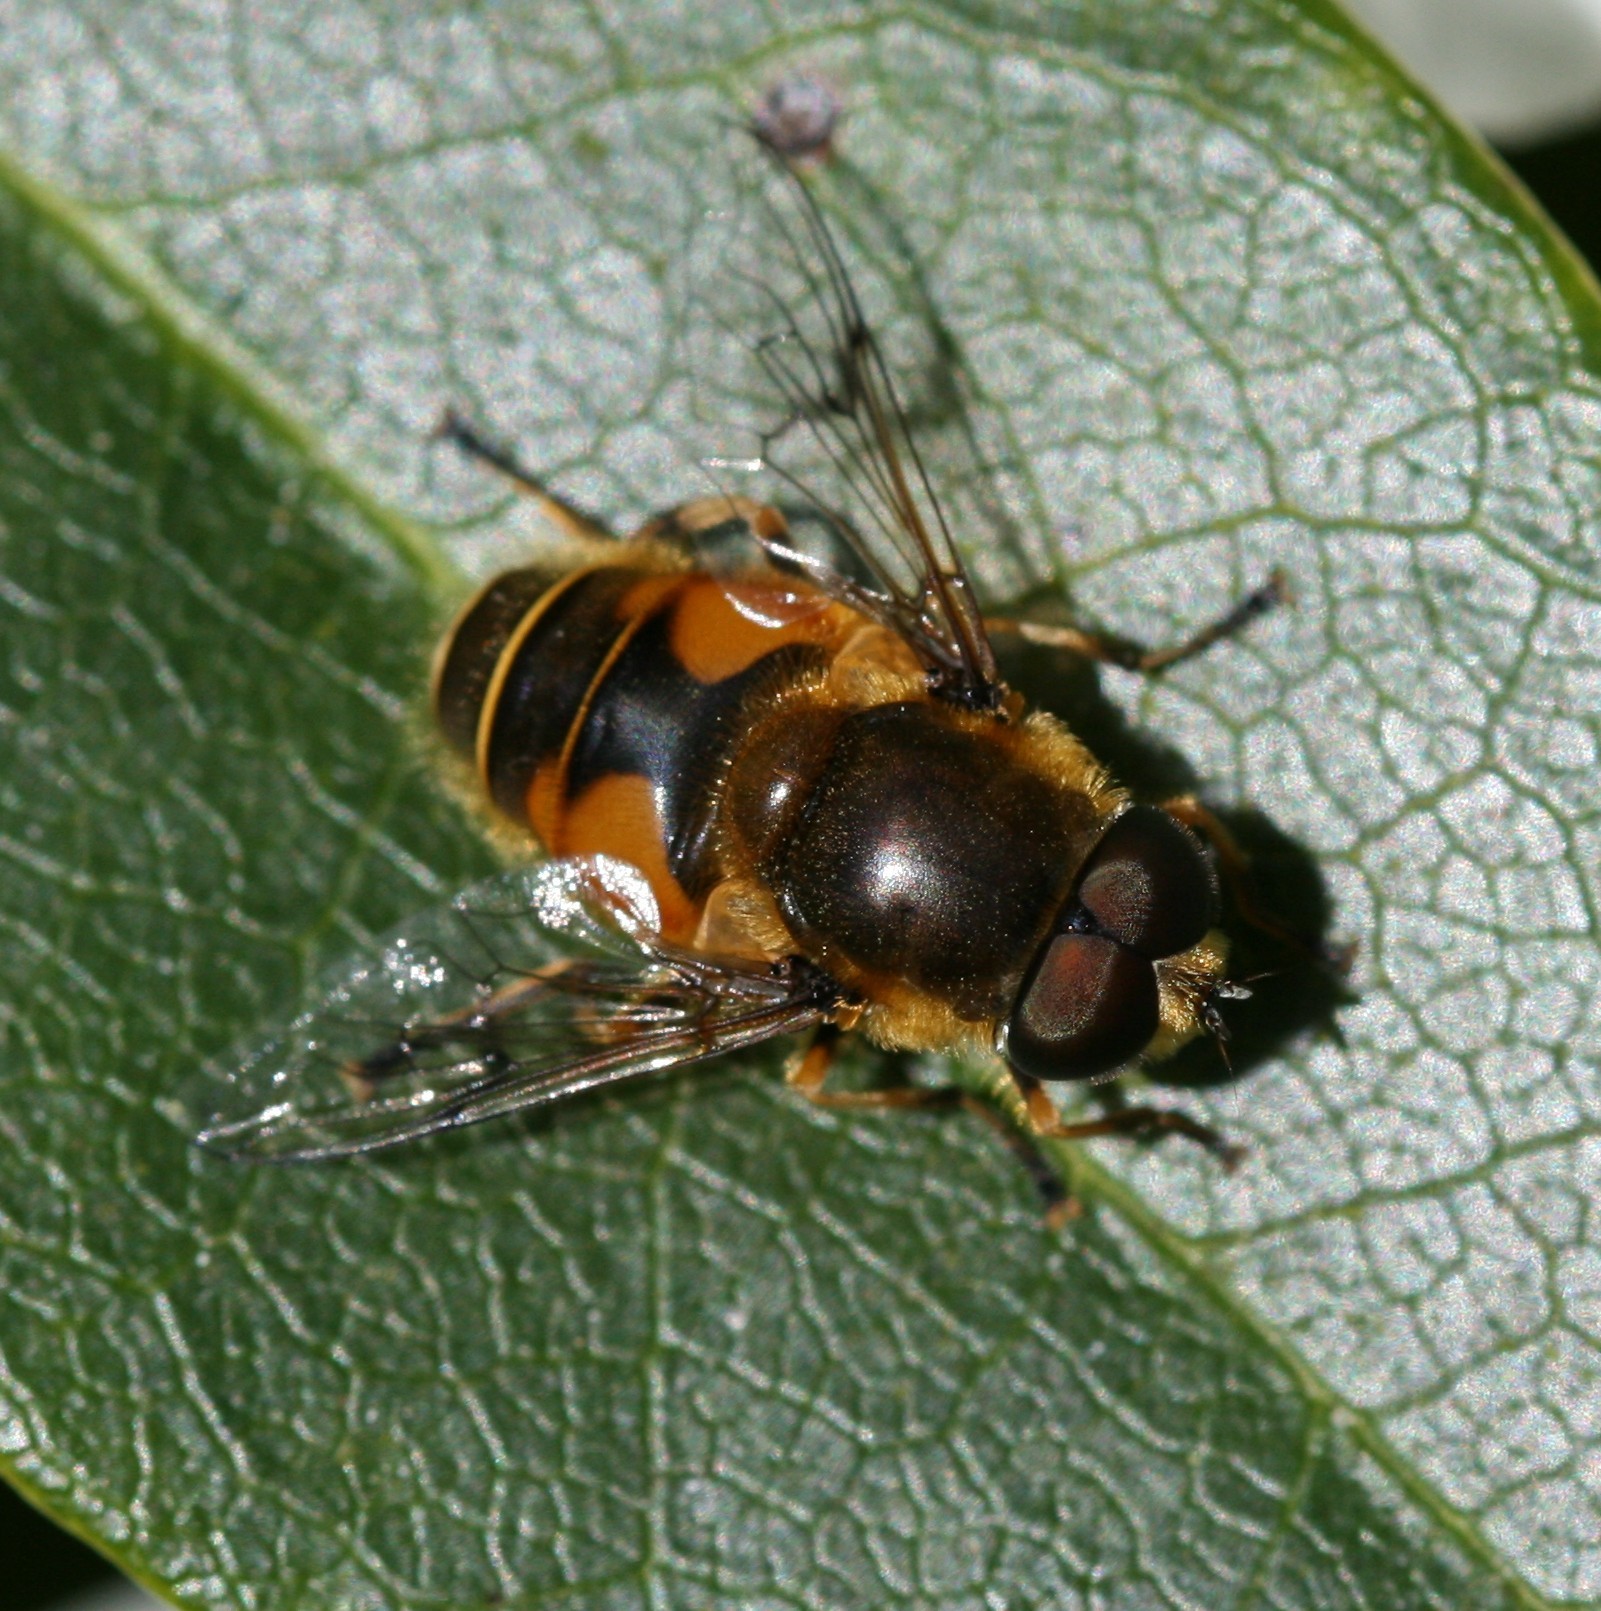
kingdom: Animalia
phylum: Arthropoda
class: Insecta
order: Diptera
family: Syrphidae
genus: Cheilosia
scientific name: Cheilosia morio
